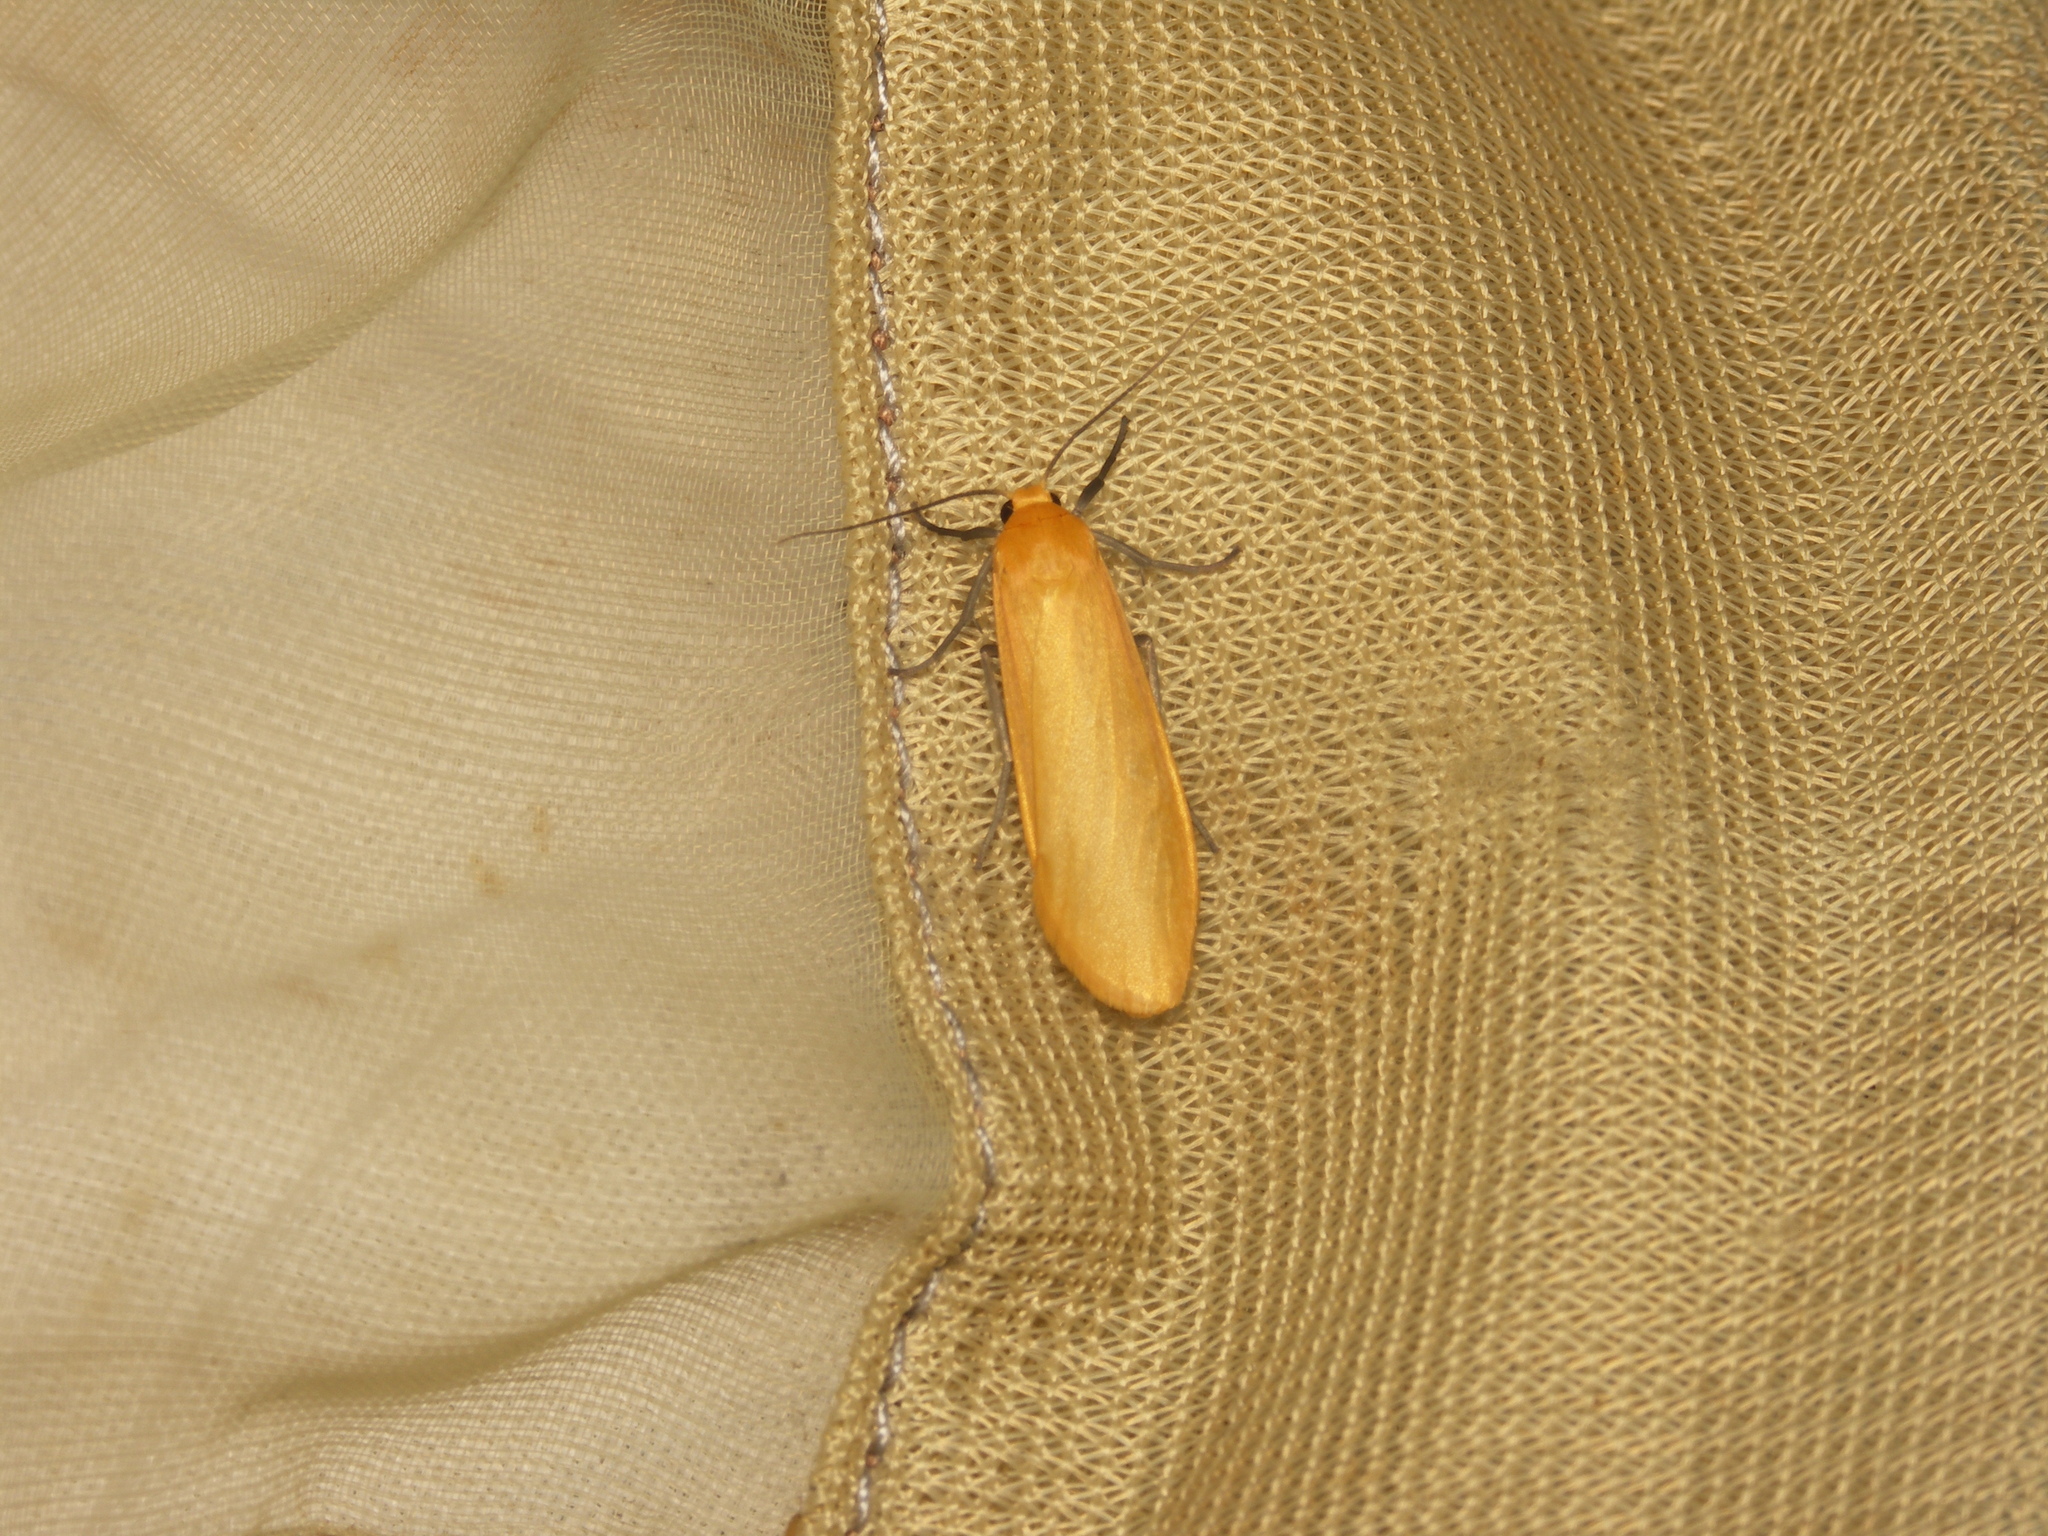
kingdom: Animalia
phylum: Arthropoda
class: Insecta
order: Lepidoptera
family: Erebidae
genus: Wittia
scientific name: Wittia sororcula
